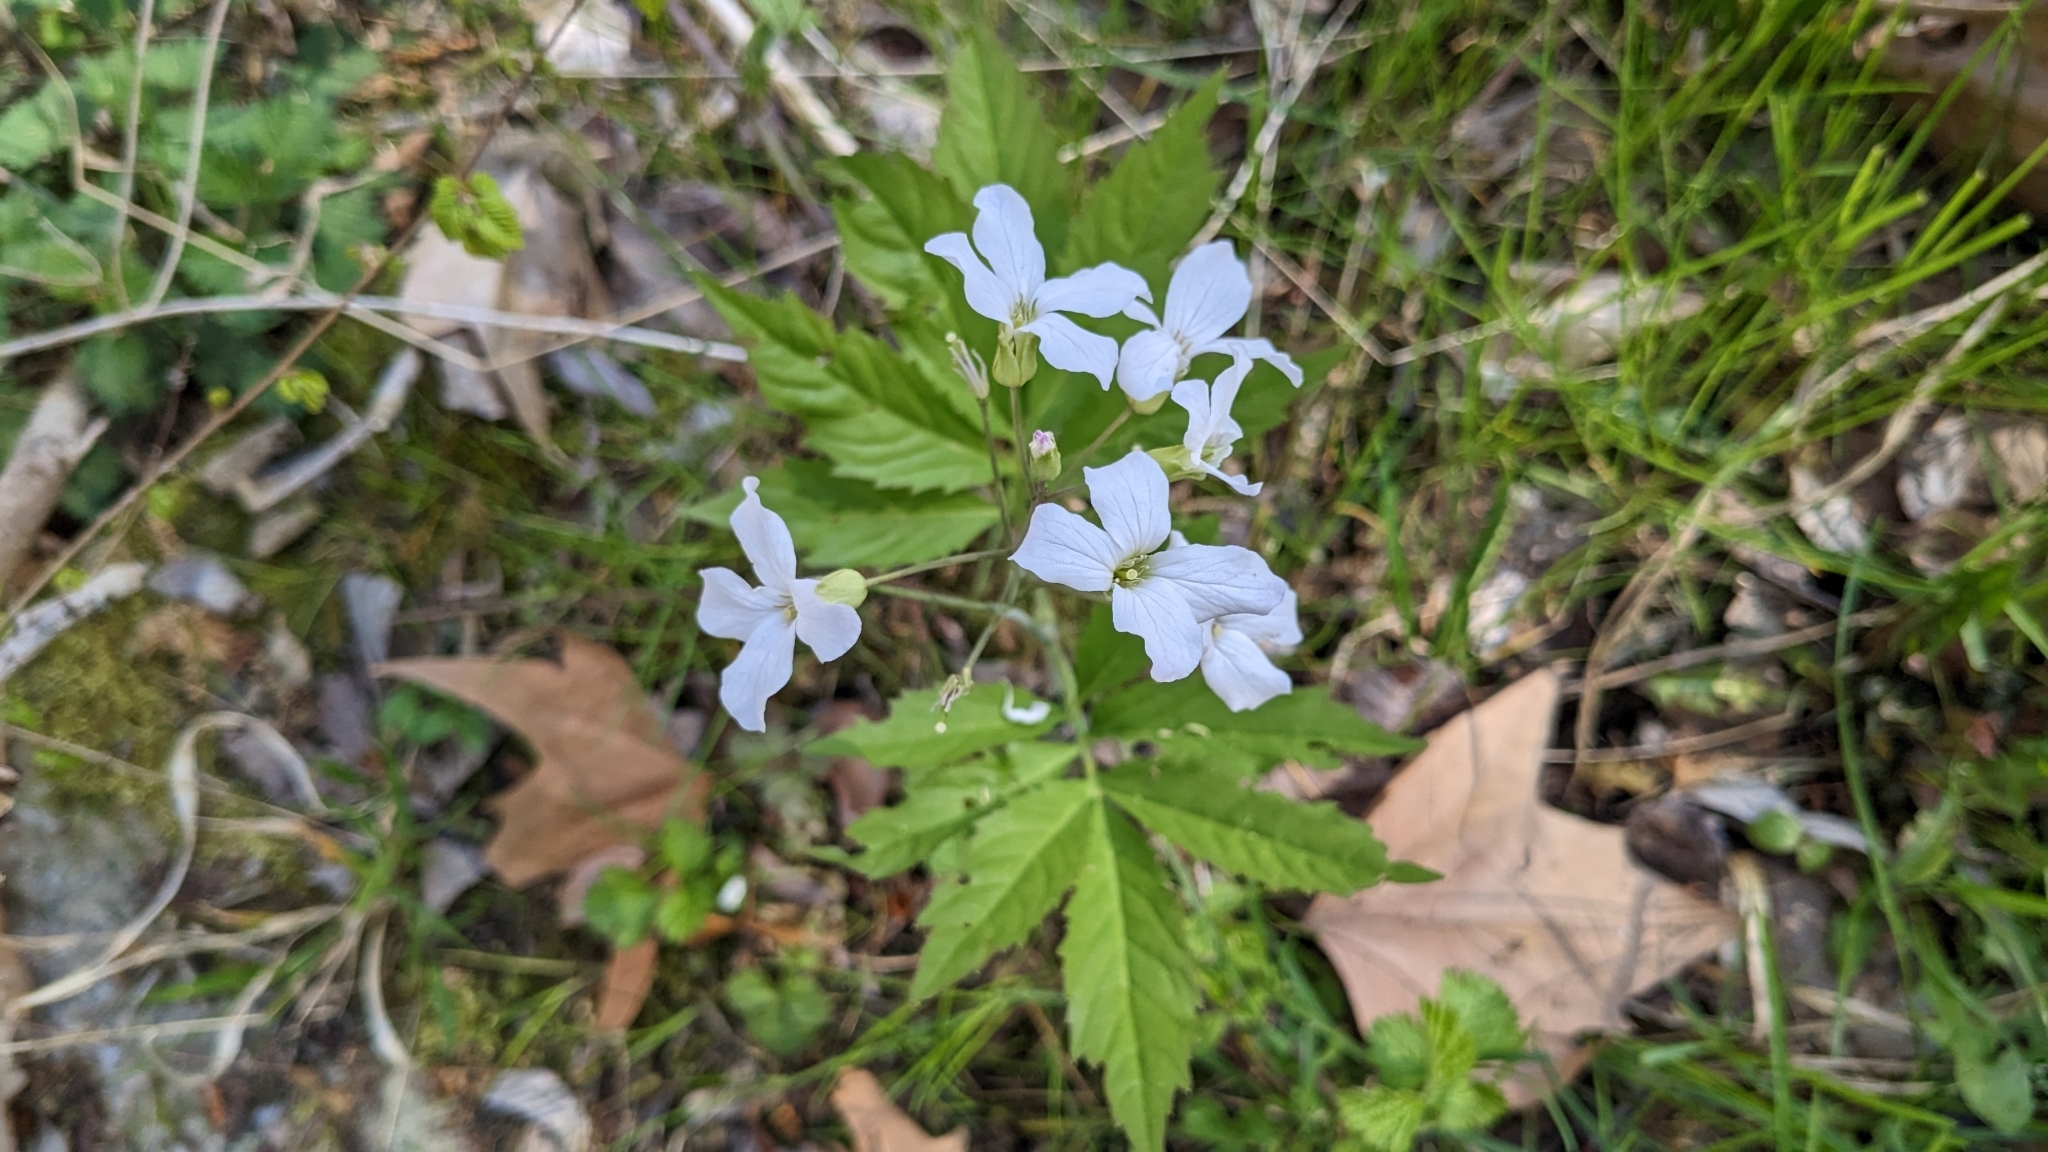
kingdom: Plantae
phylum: Tracheophyta
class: Magnoliopsida
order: Brassicales
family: Brassicaceae
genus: Cardamine
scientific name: Cardamine heptaphylla
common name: Pinnate coralroot
